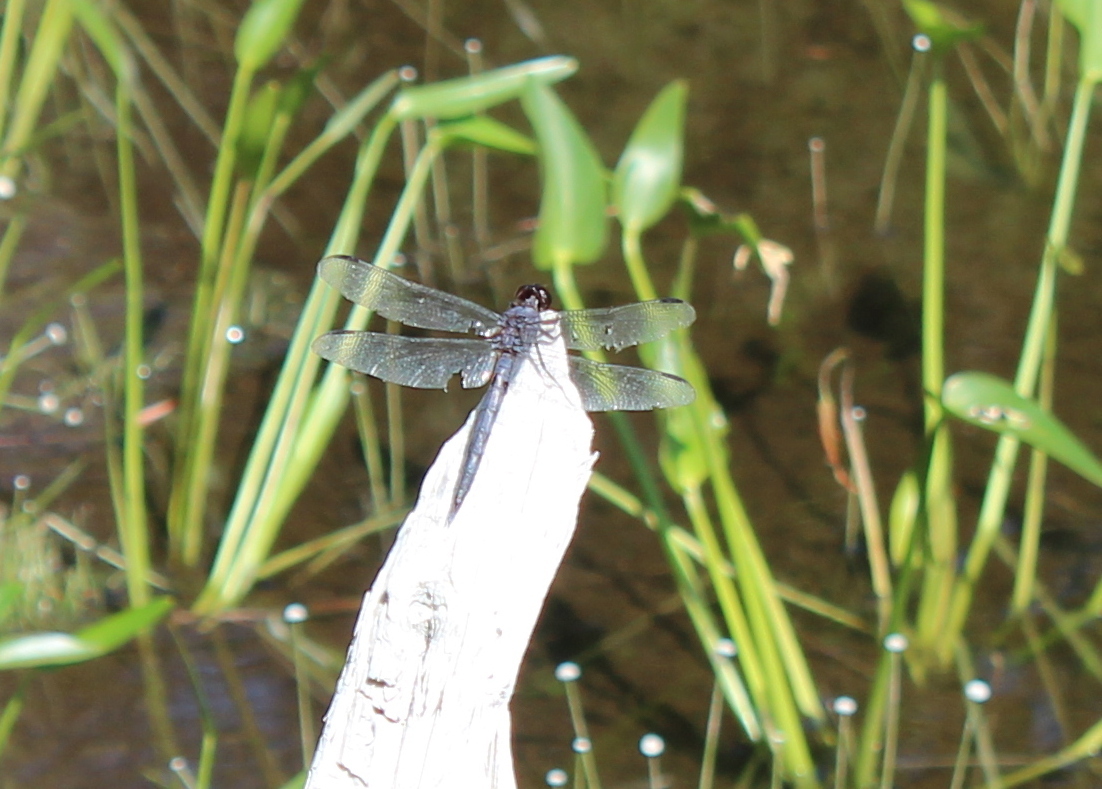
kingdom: Animalia
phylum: Arthropoda
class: Insecta
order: Odonata
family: Libellulidae
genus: Libellula
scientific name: Libellula incesta
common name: Slaty skimmer
